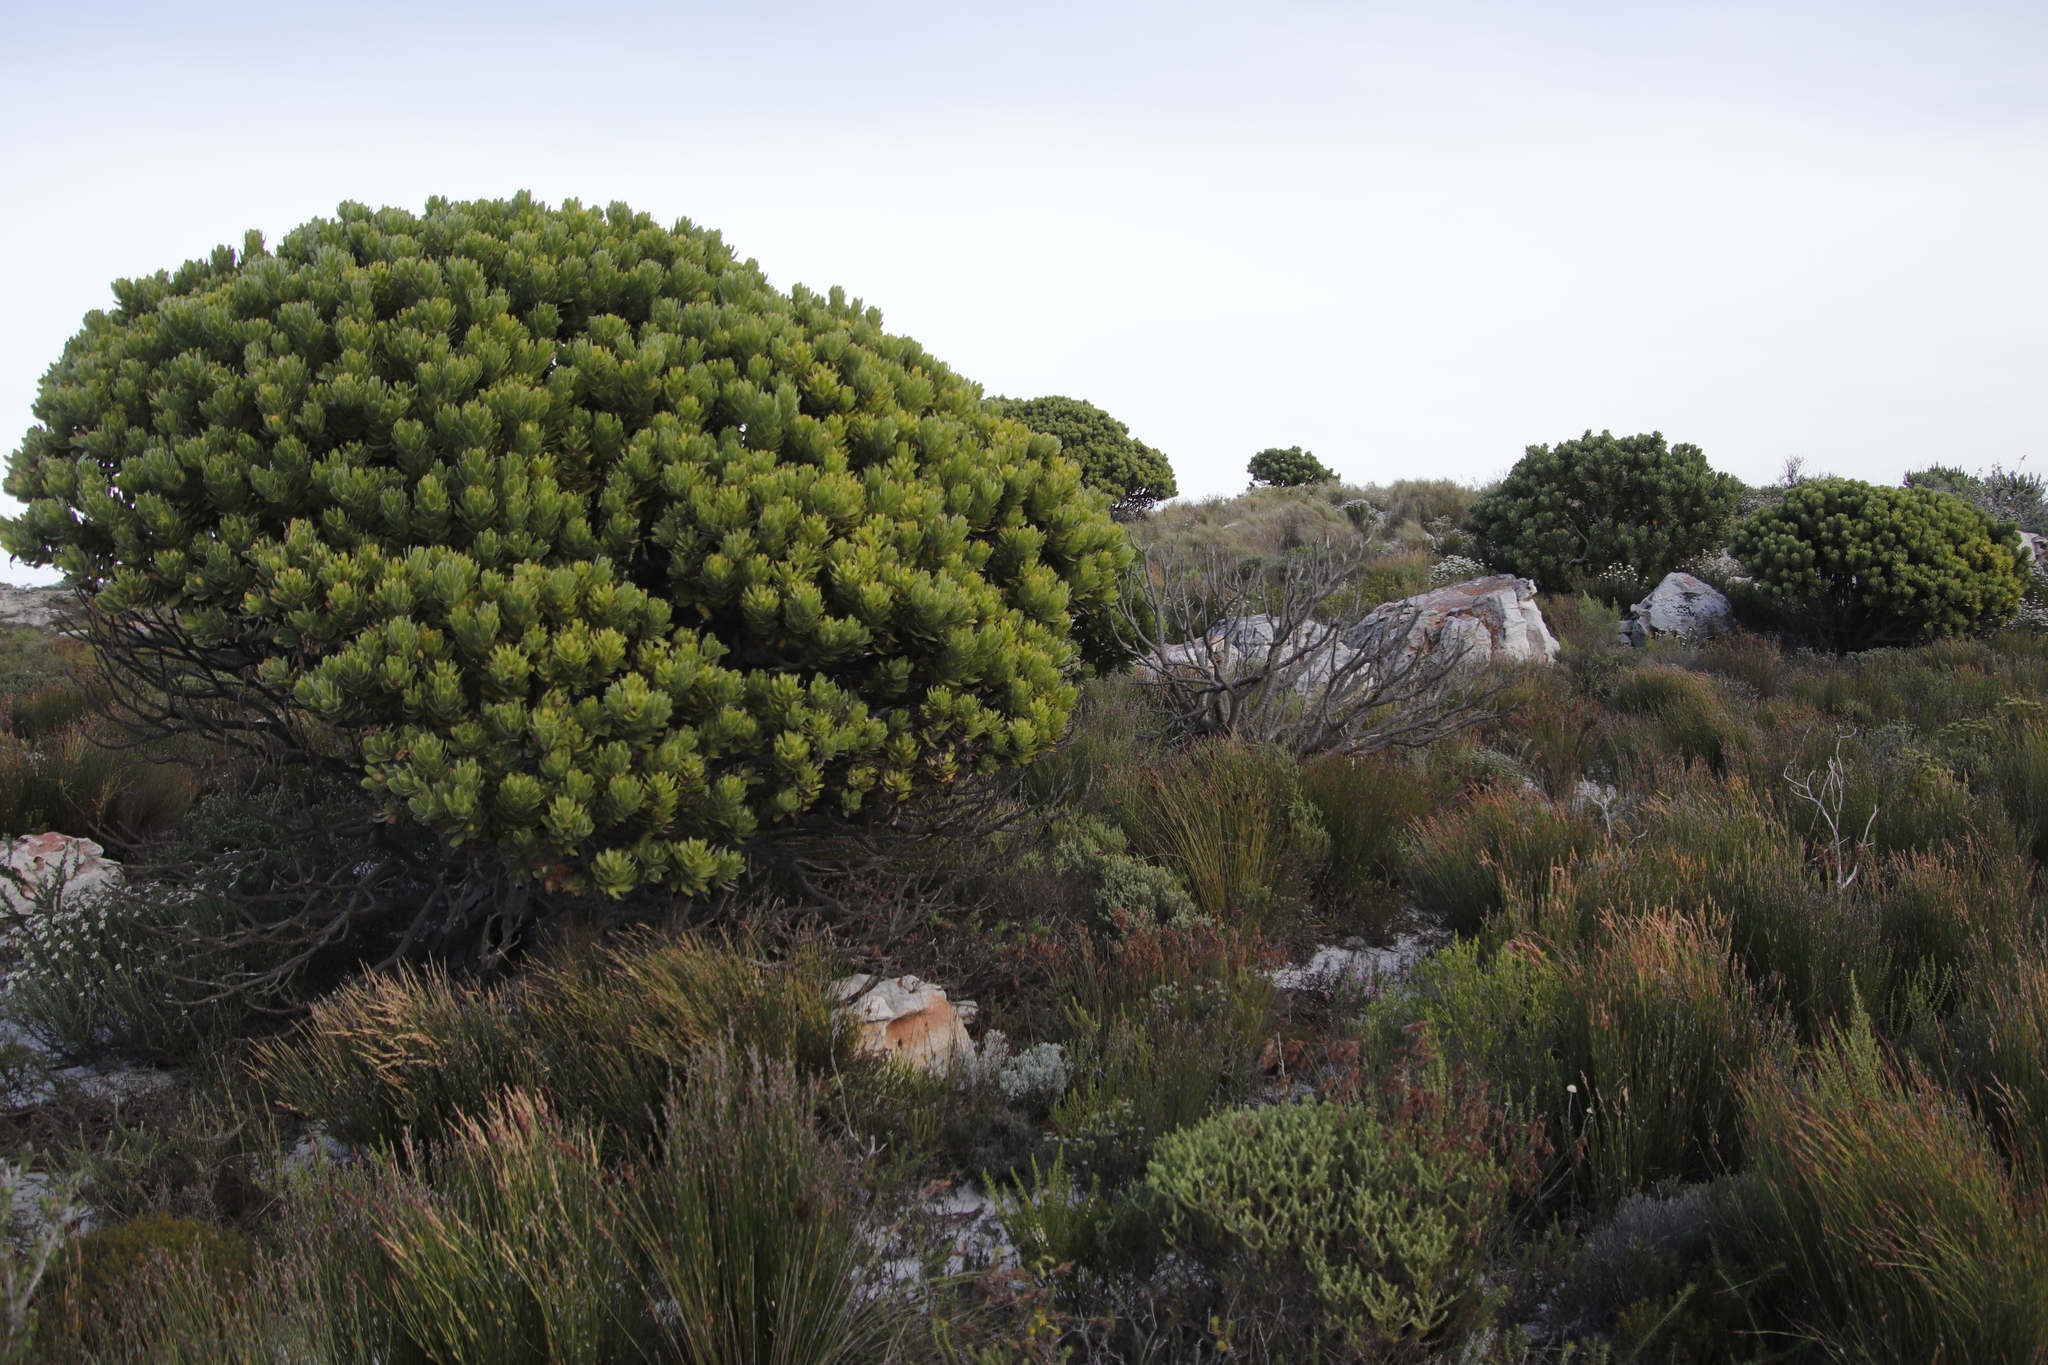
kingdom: Plantae
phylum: Tracheophyta
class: Magnoliopsida
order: Proteales
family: Proteaceae
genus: Mimetes
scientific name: Mimetes fimbriifolius
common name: Fringed bottlebrush
